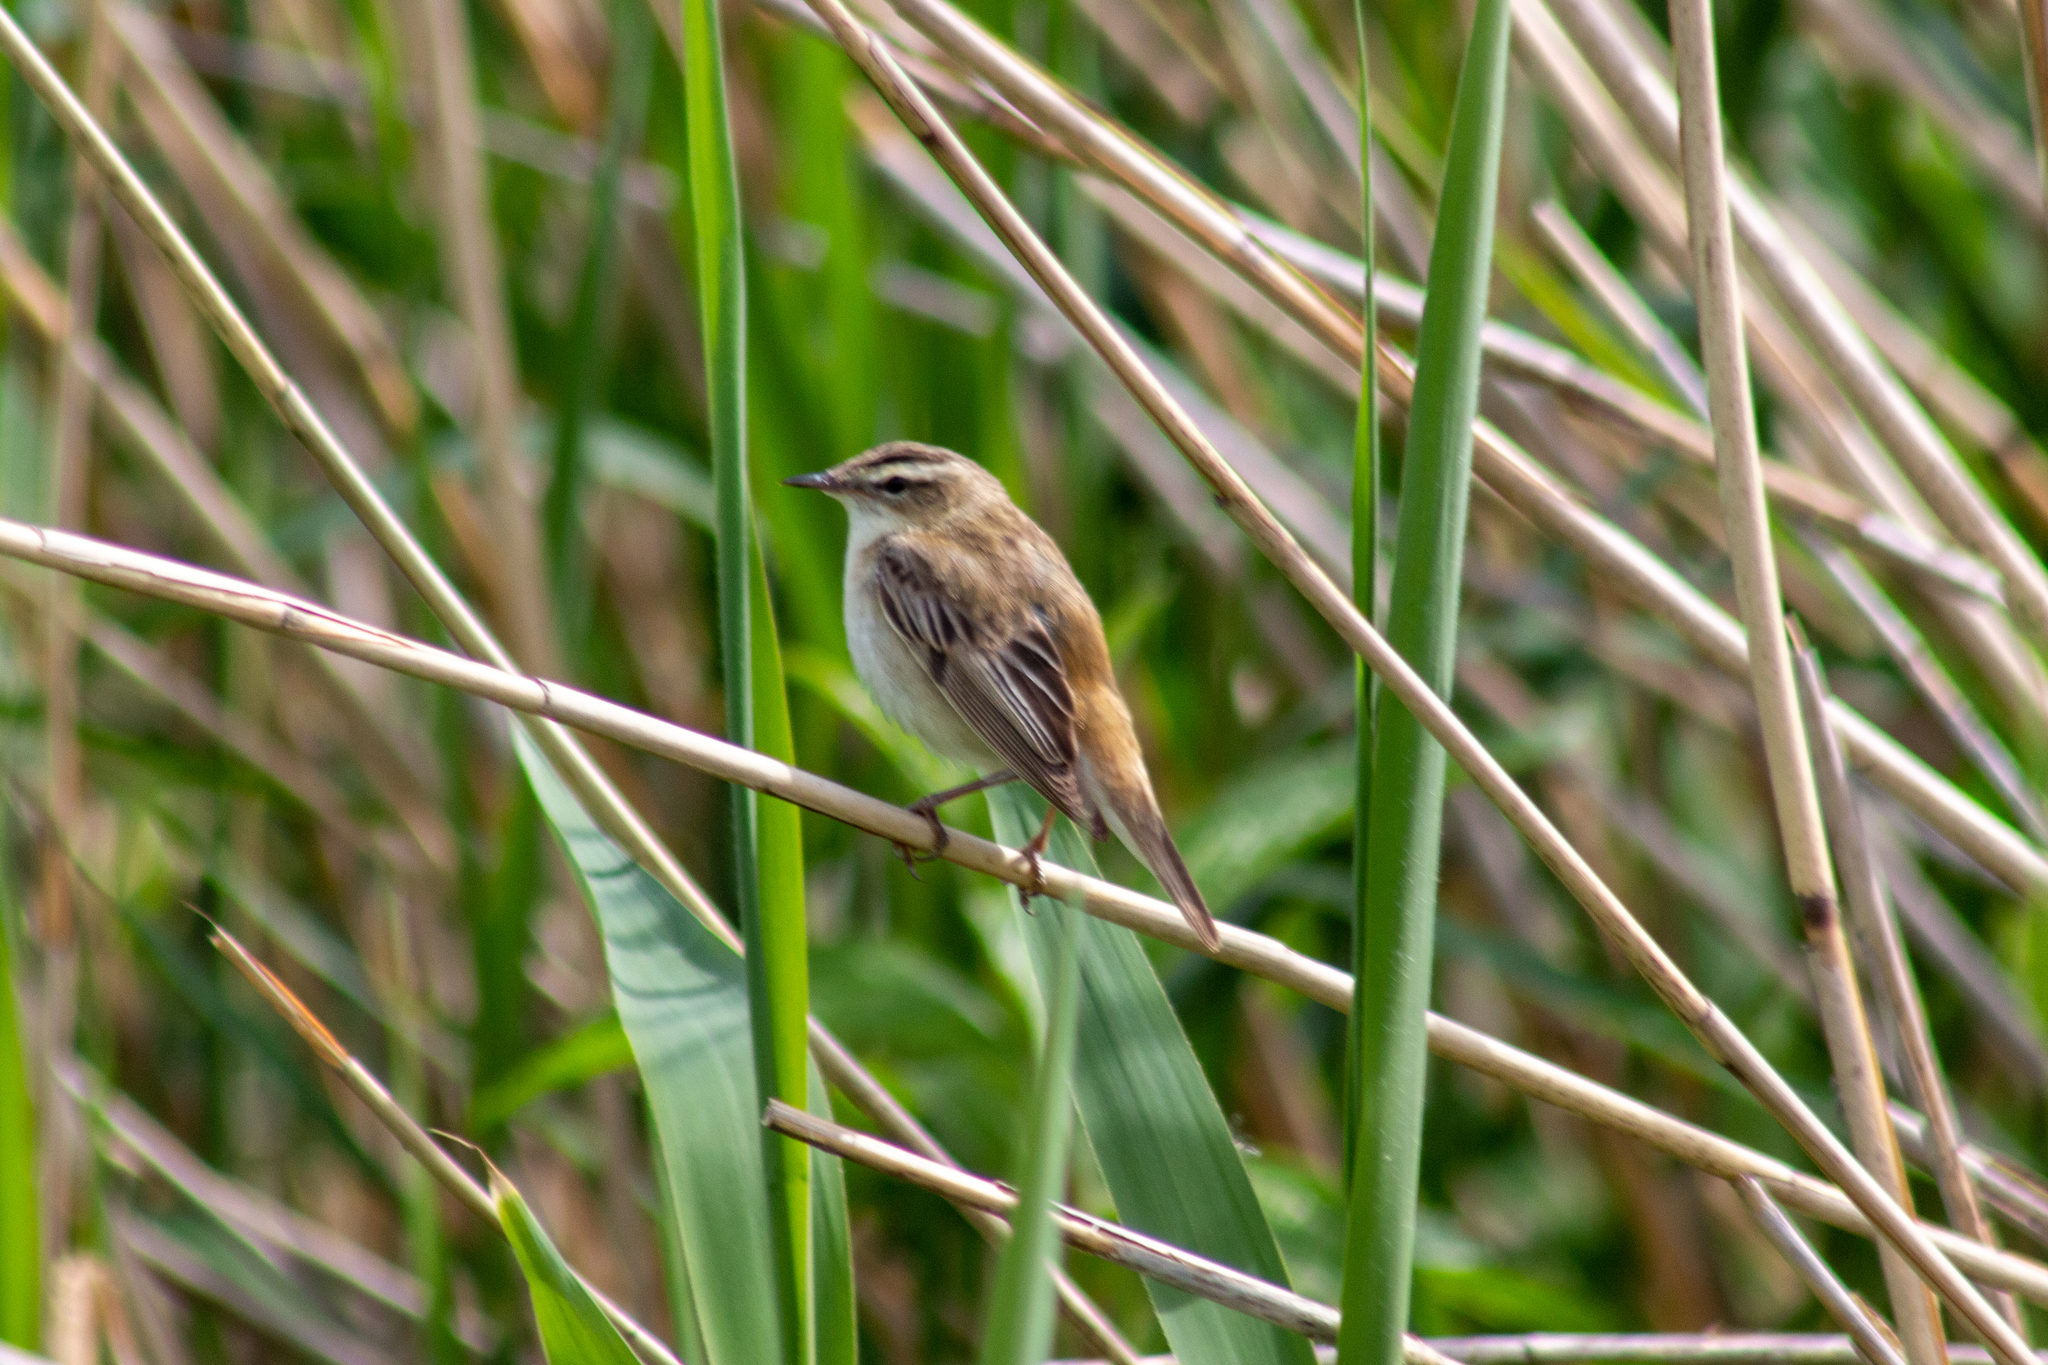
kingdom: Animalia
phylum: Chordata
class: Aves
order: Passeriformes
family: Acrocephalidae
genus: Acrocephalus
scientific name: Acrocephalus schoenobaenus
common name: Sedge warbler
